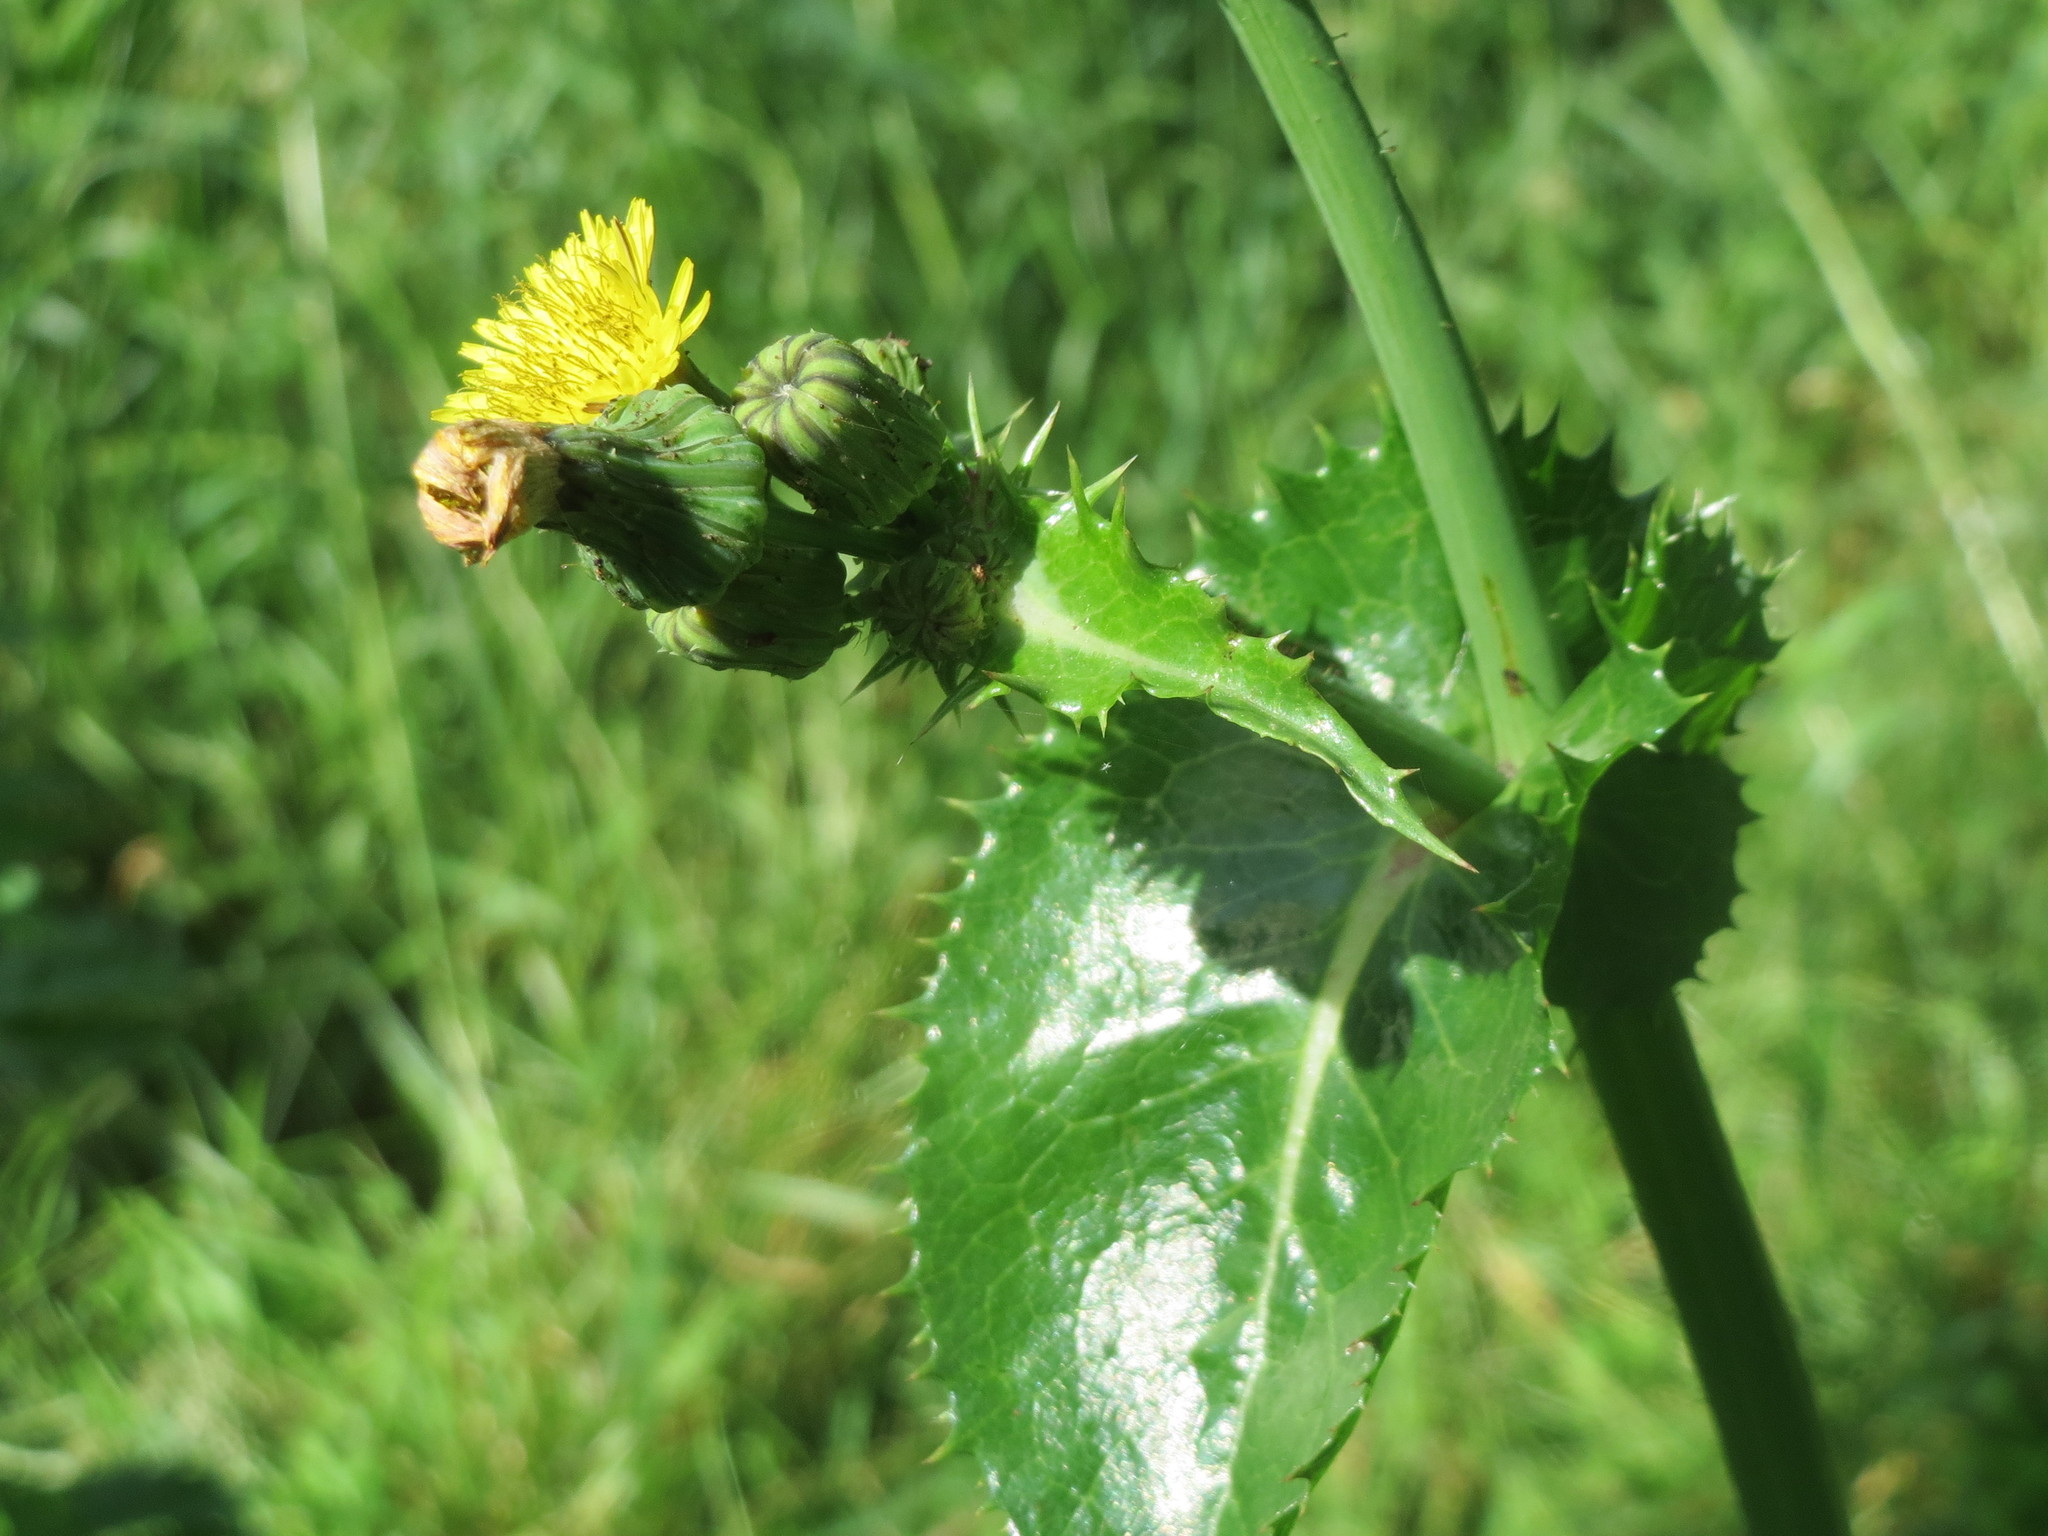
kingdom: Plantae
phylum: Tracheophyta
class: Magnoliopsida
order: Asterales
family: Asteraceae
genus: Sonchus
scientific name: Sonchus asper
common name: Prickly sow-thistle
